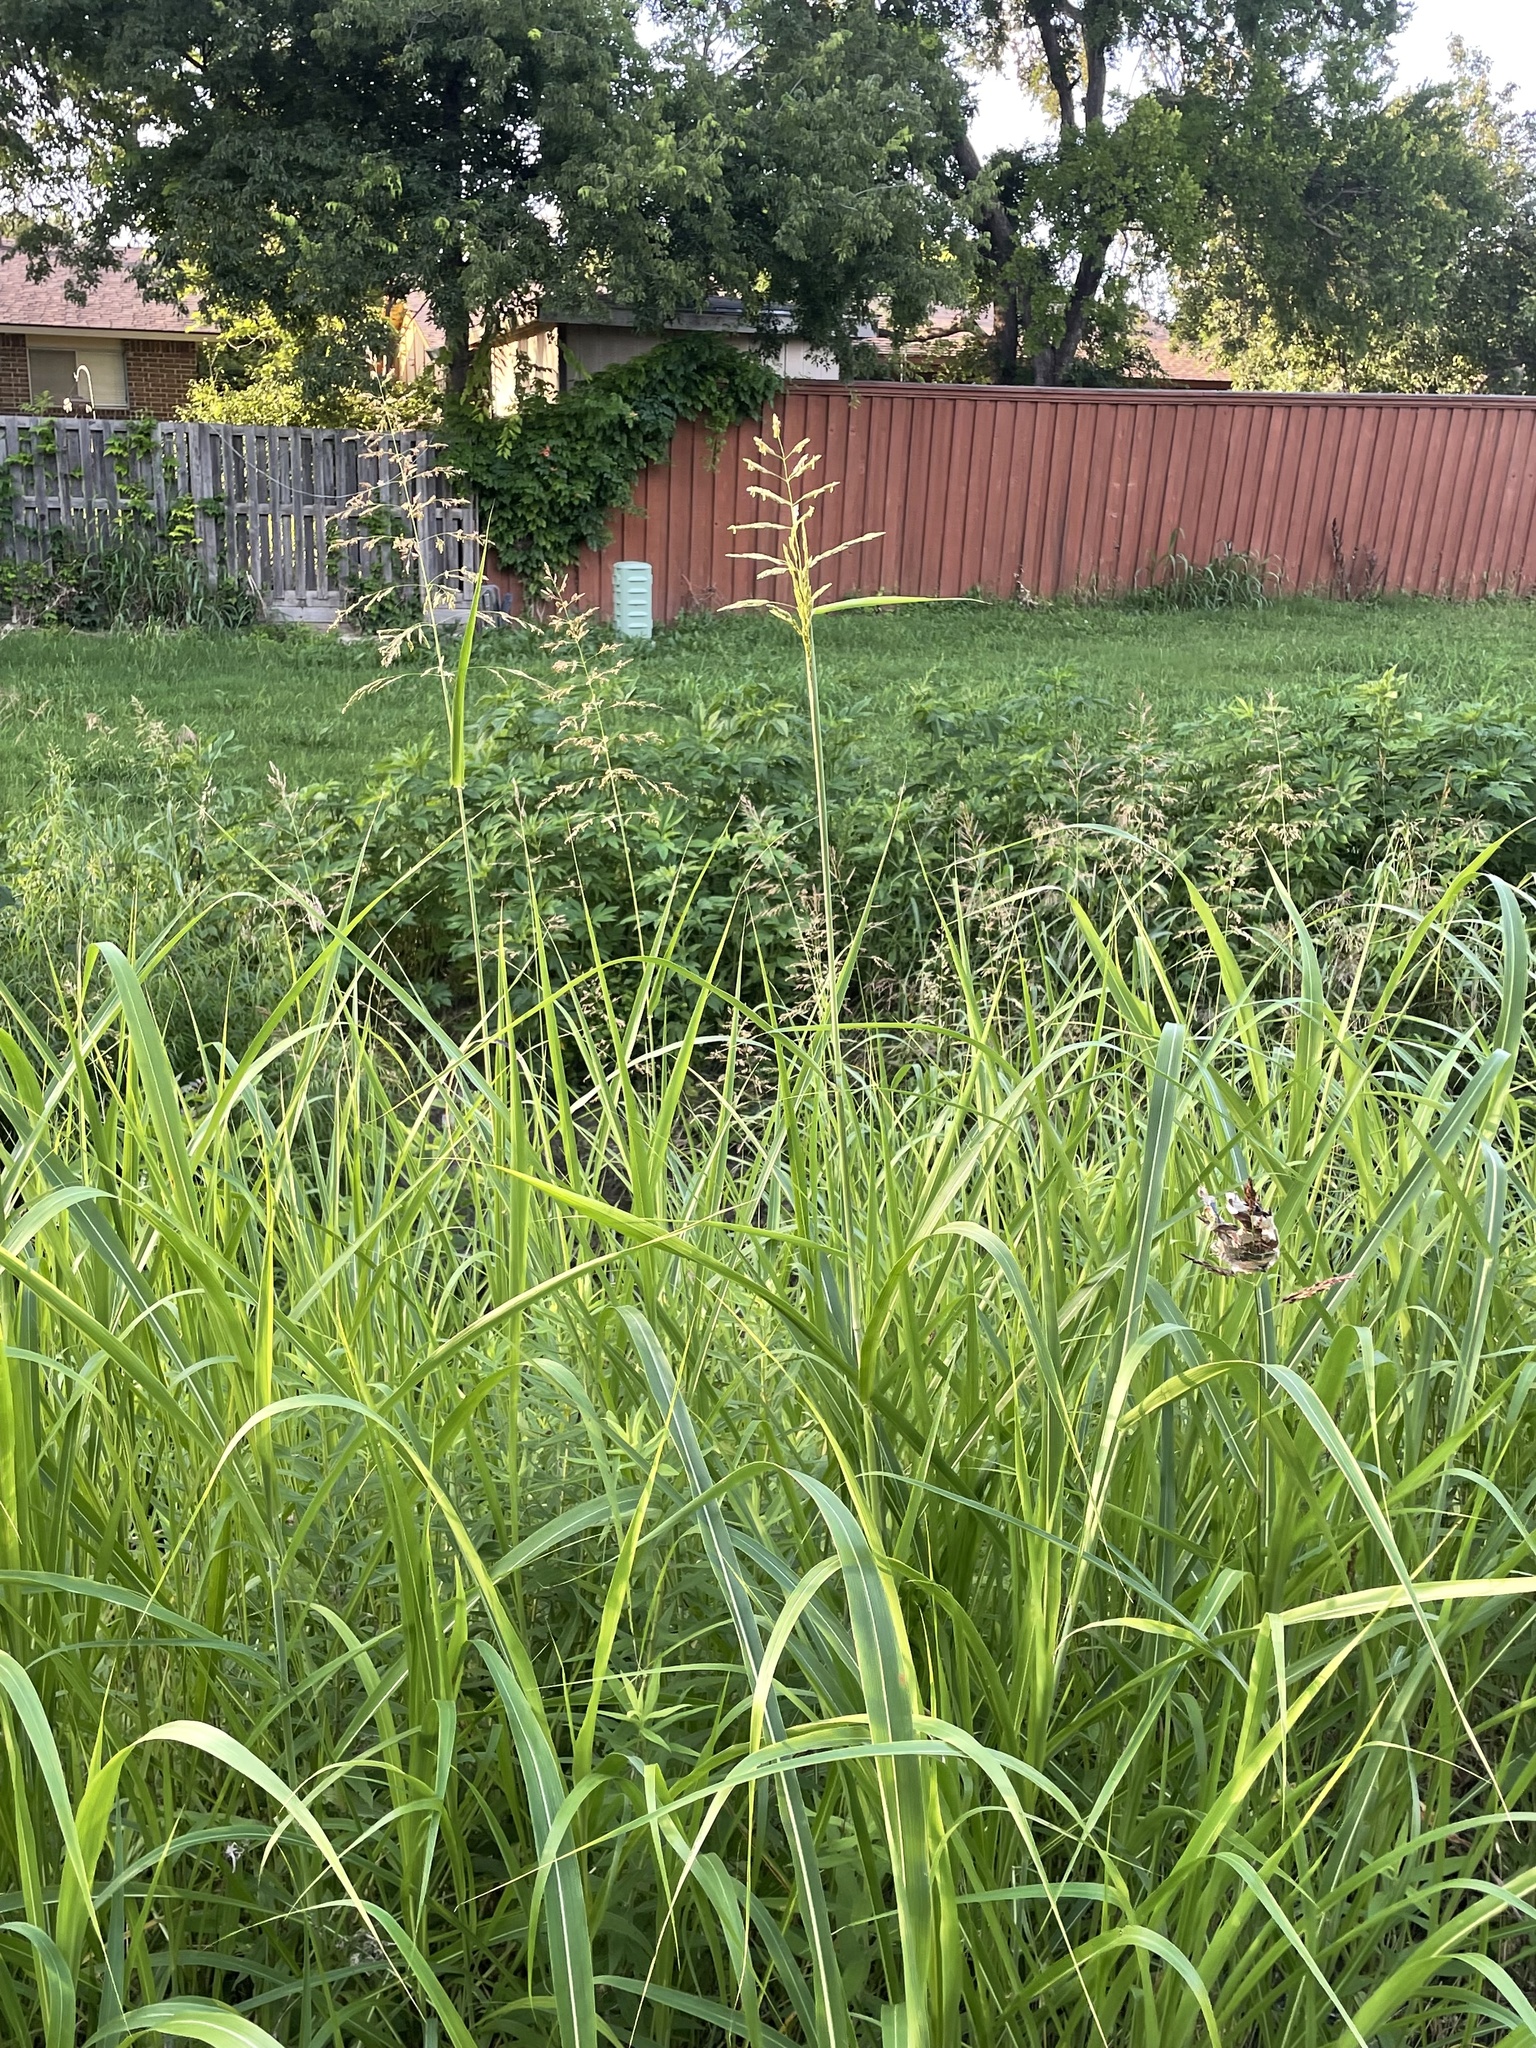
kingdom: Plantae
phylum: Tracheophyta
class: Liliopsida
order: Poales
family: Poaceae
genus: Sorghum
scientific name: Sorghum halepense
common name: Johnson-grass
